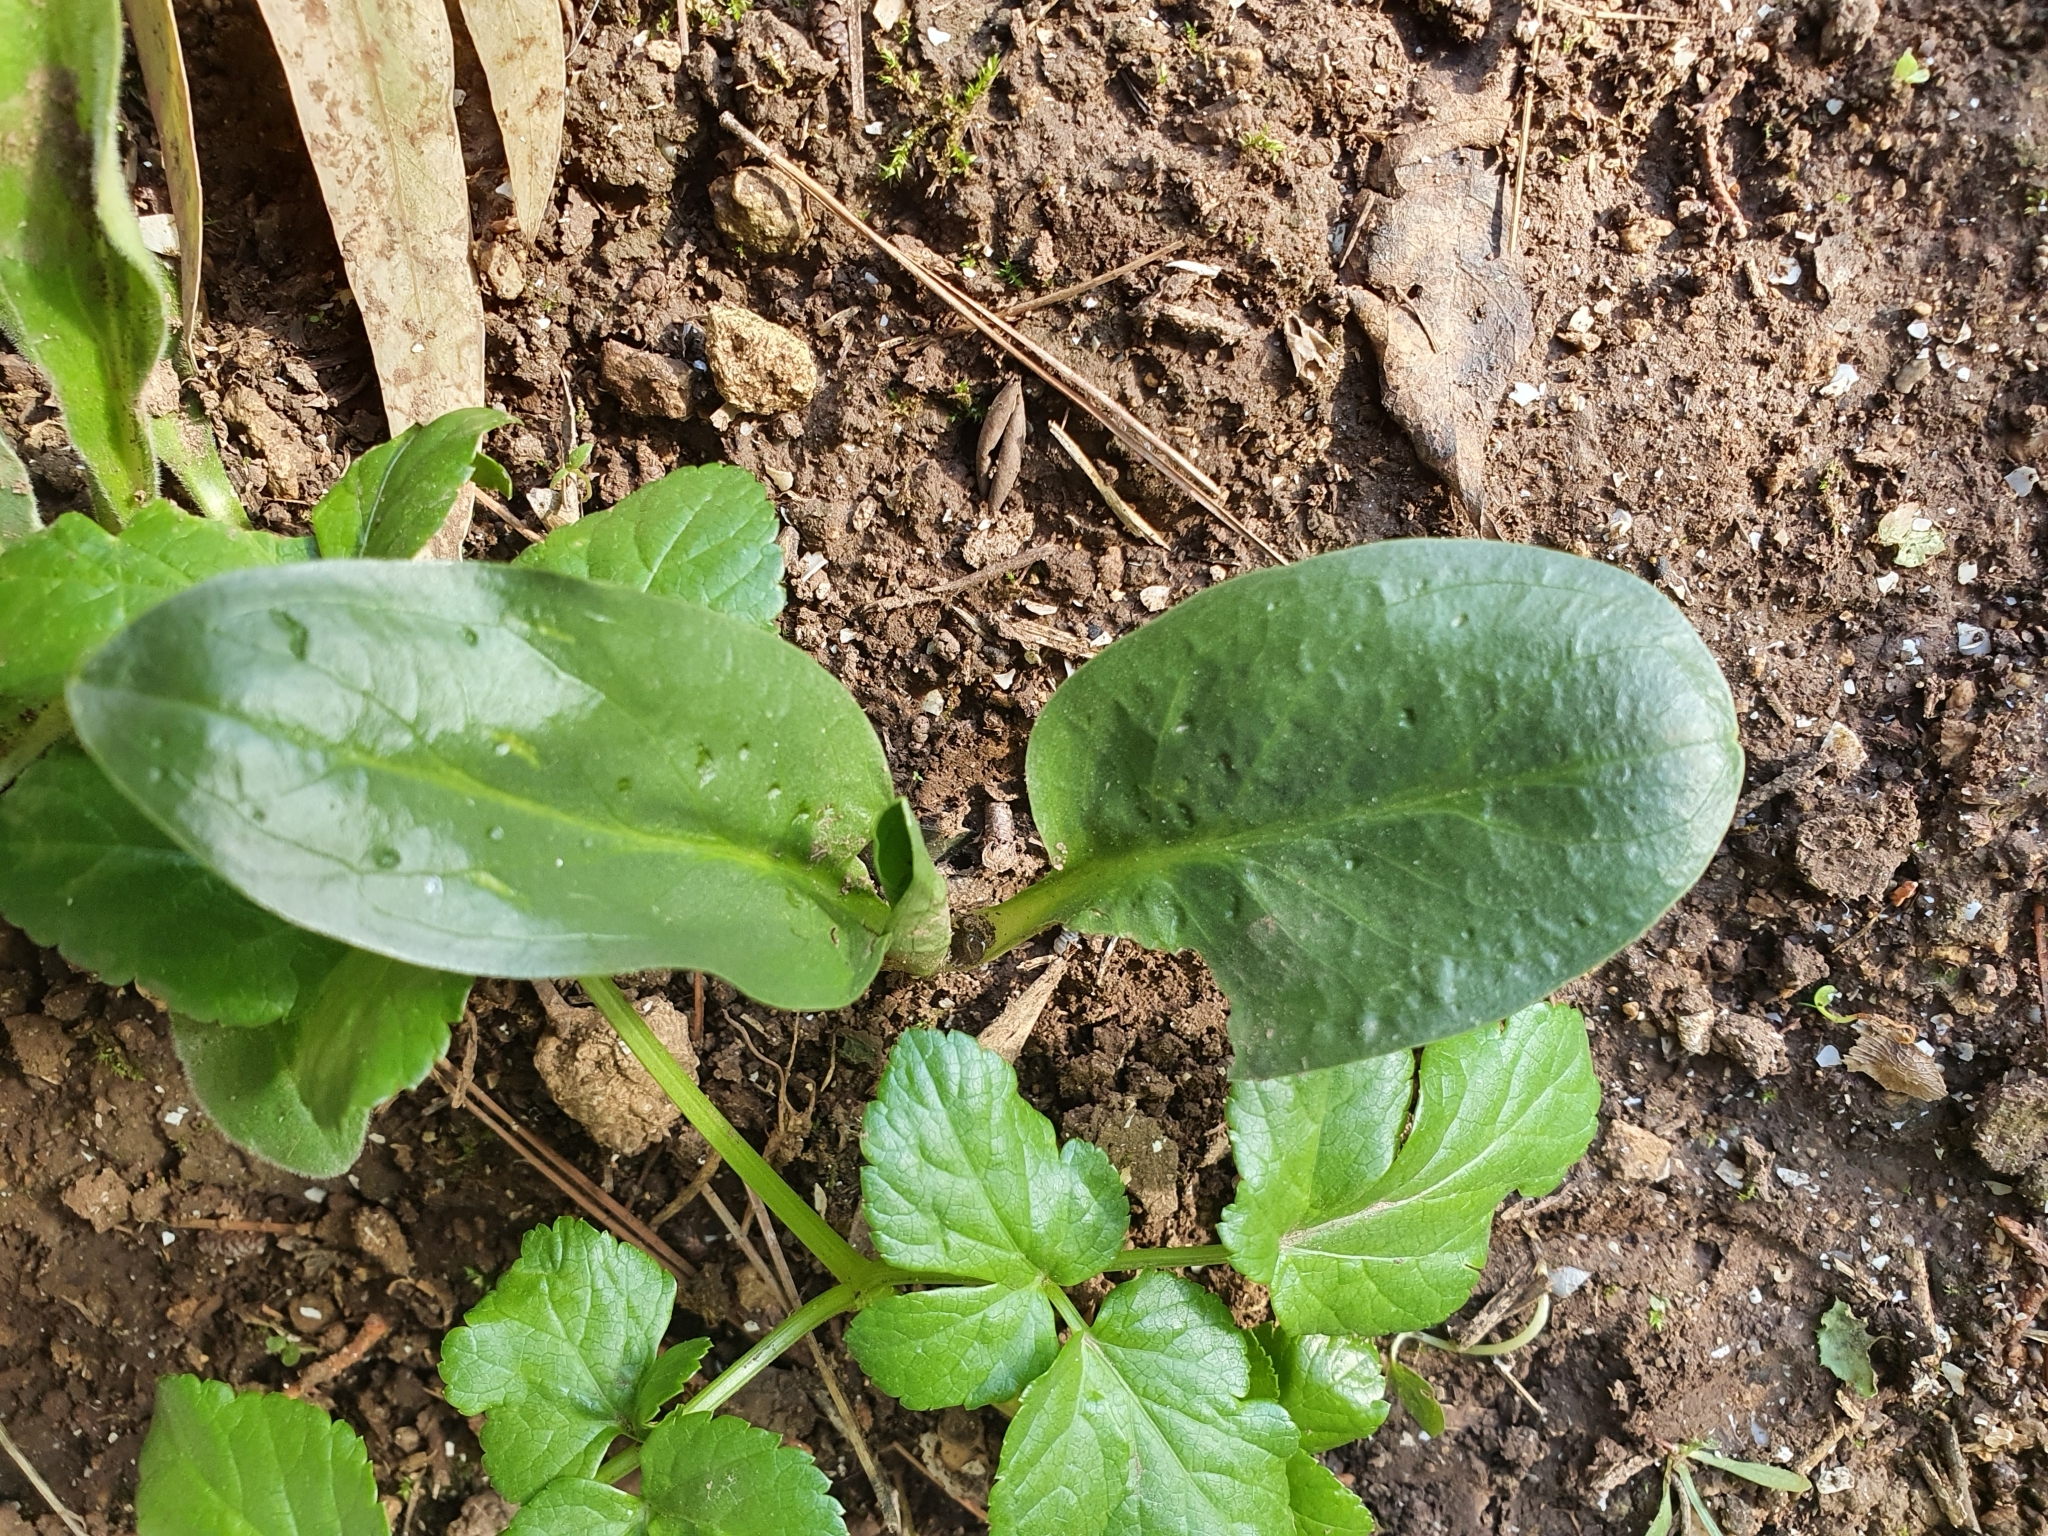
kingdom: Plantae
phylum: Tracheophyta
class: Liliopsida
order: Alismatales
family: Araceae
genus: Biarum
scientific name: Biarum dispar
